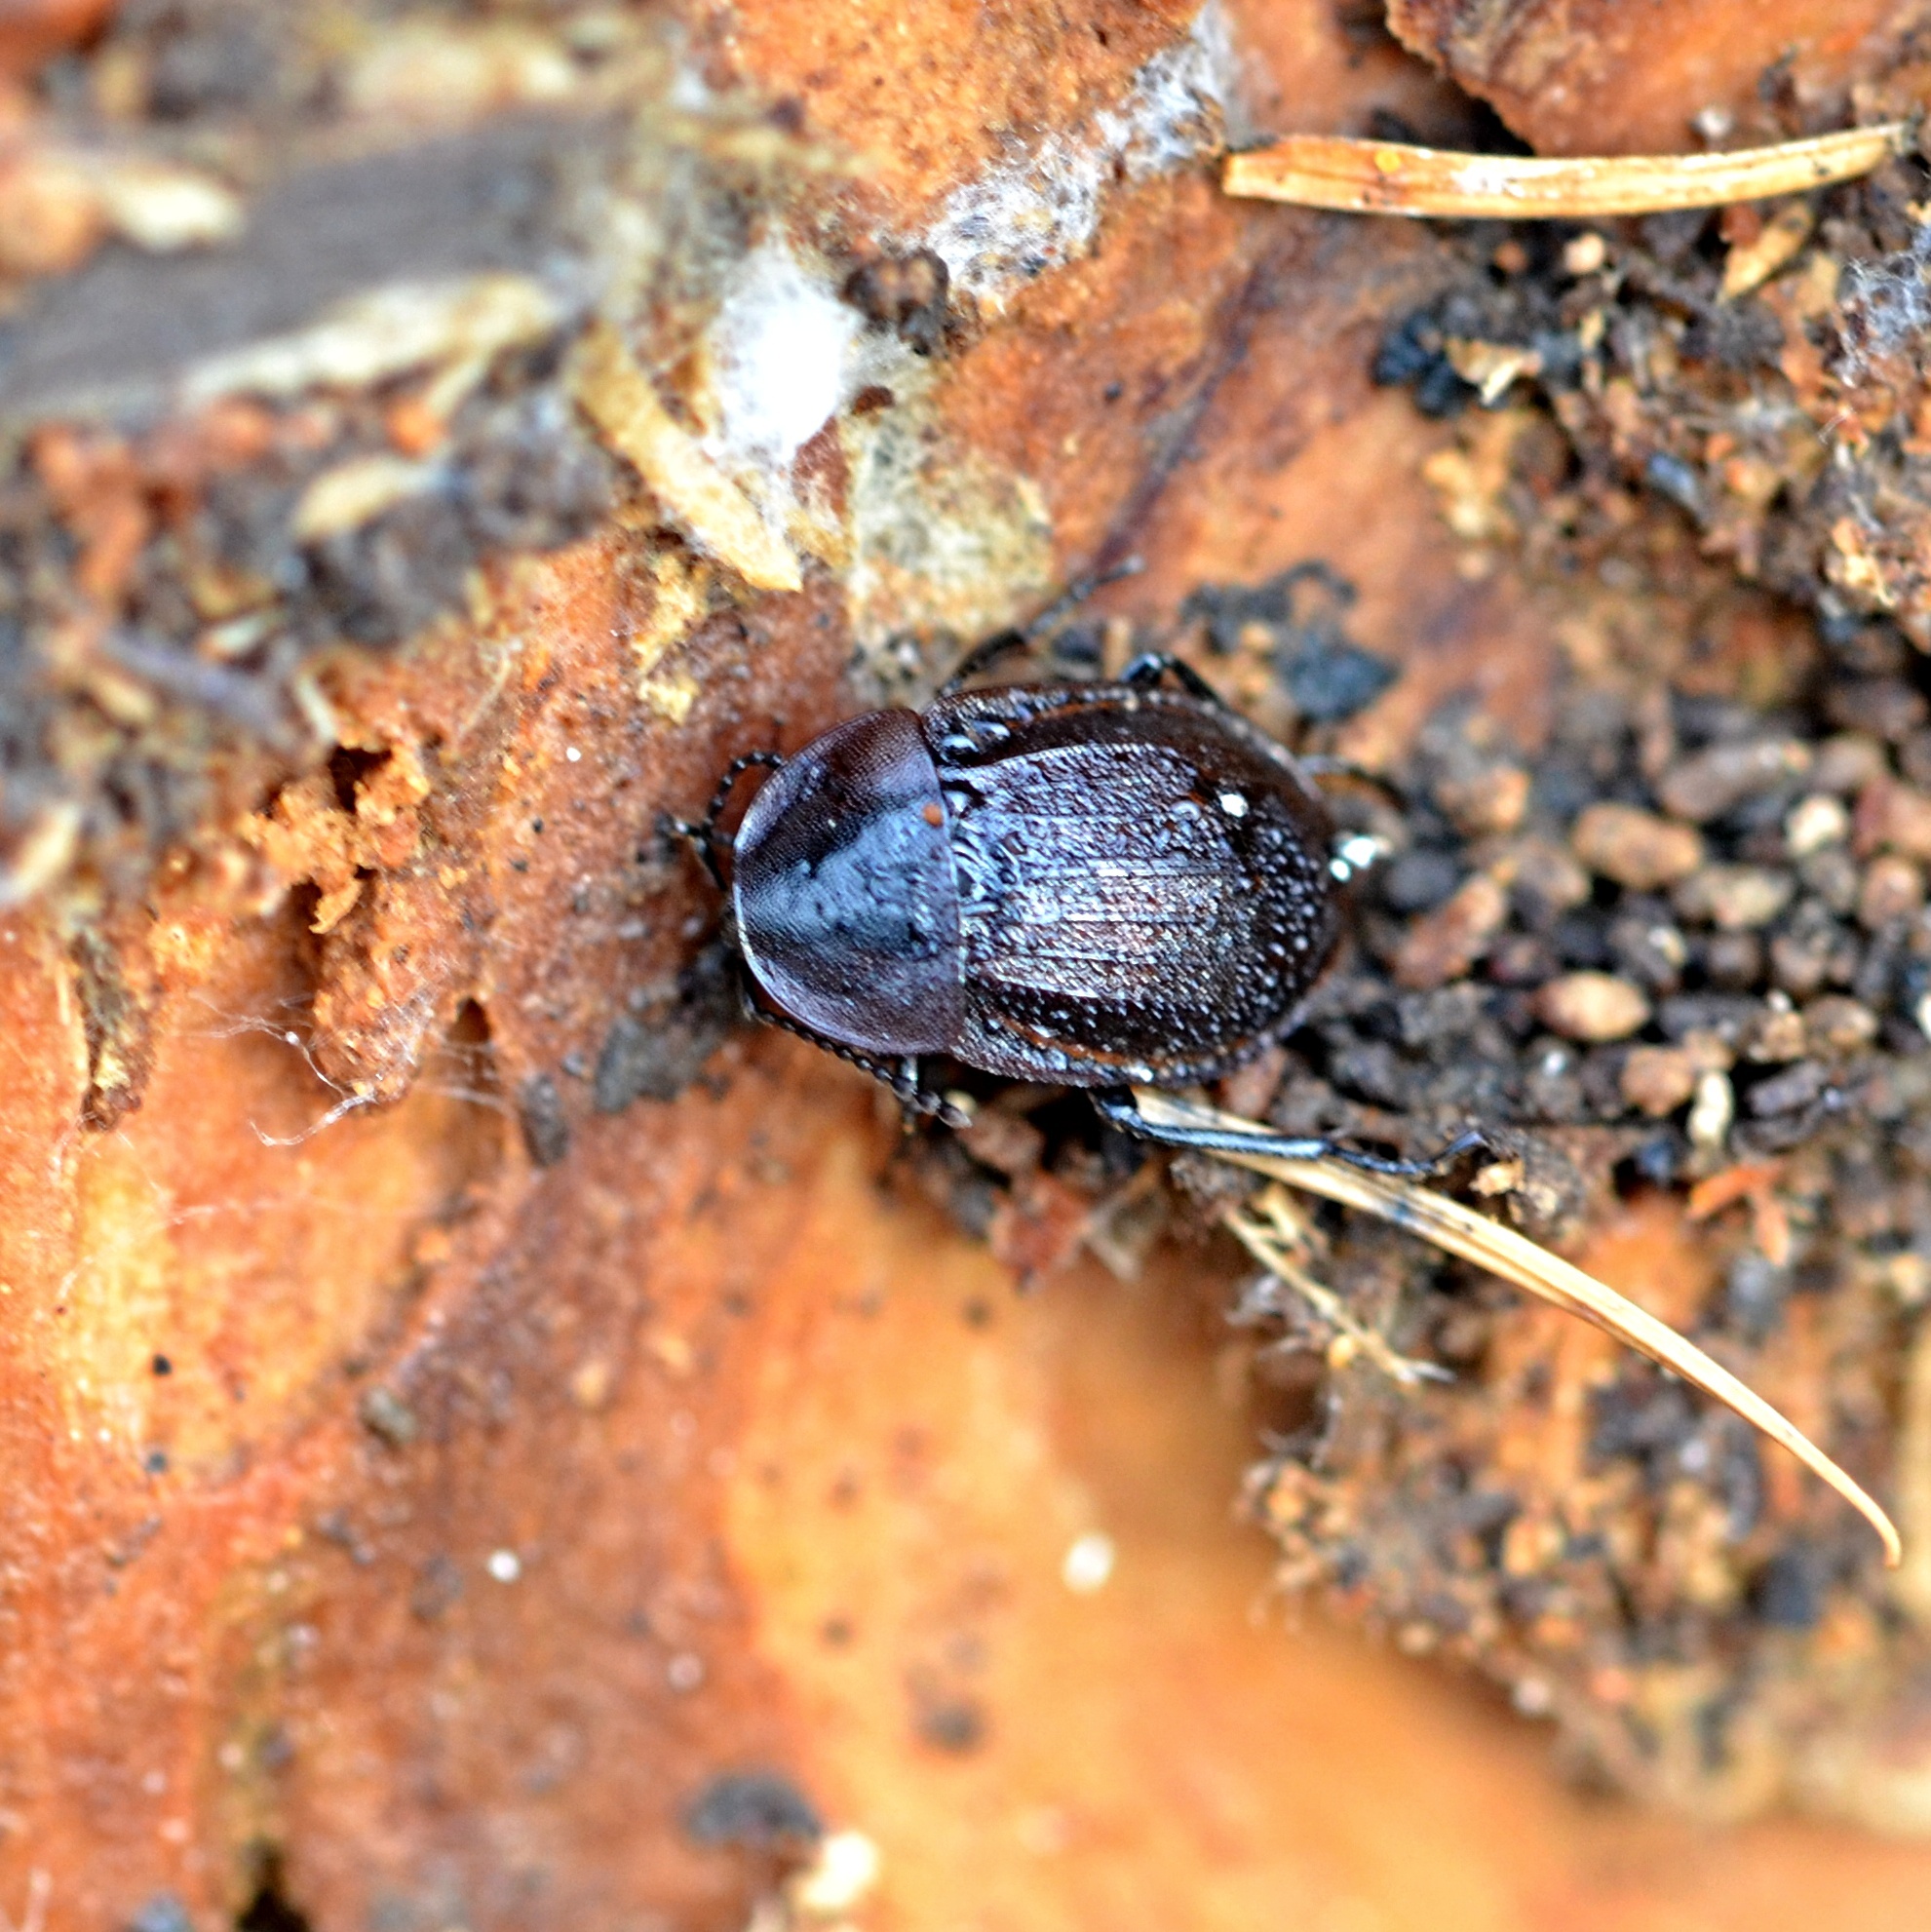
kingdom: Animalia
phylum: Arthropoda
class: Insecta
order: Coleoptera
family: Staphylinidae
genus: Silpha
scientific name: Silpha atrata
